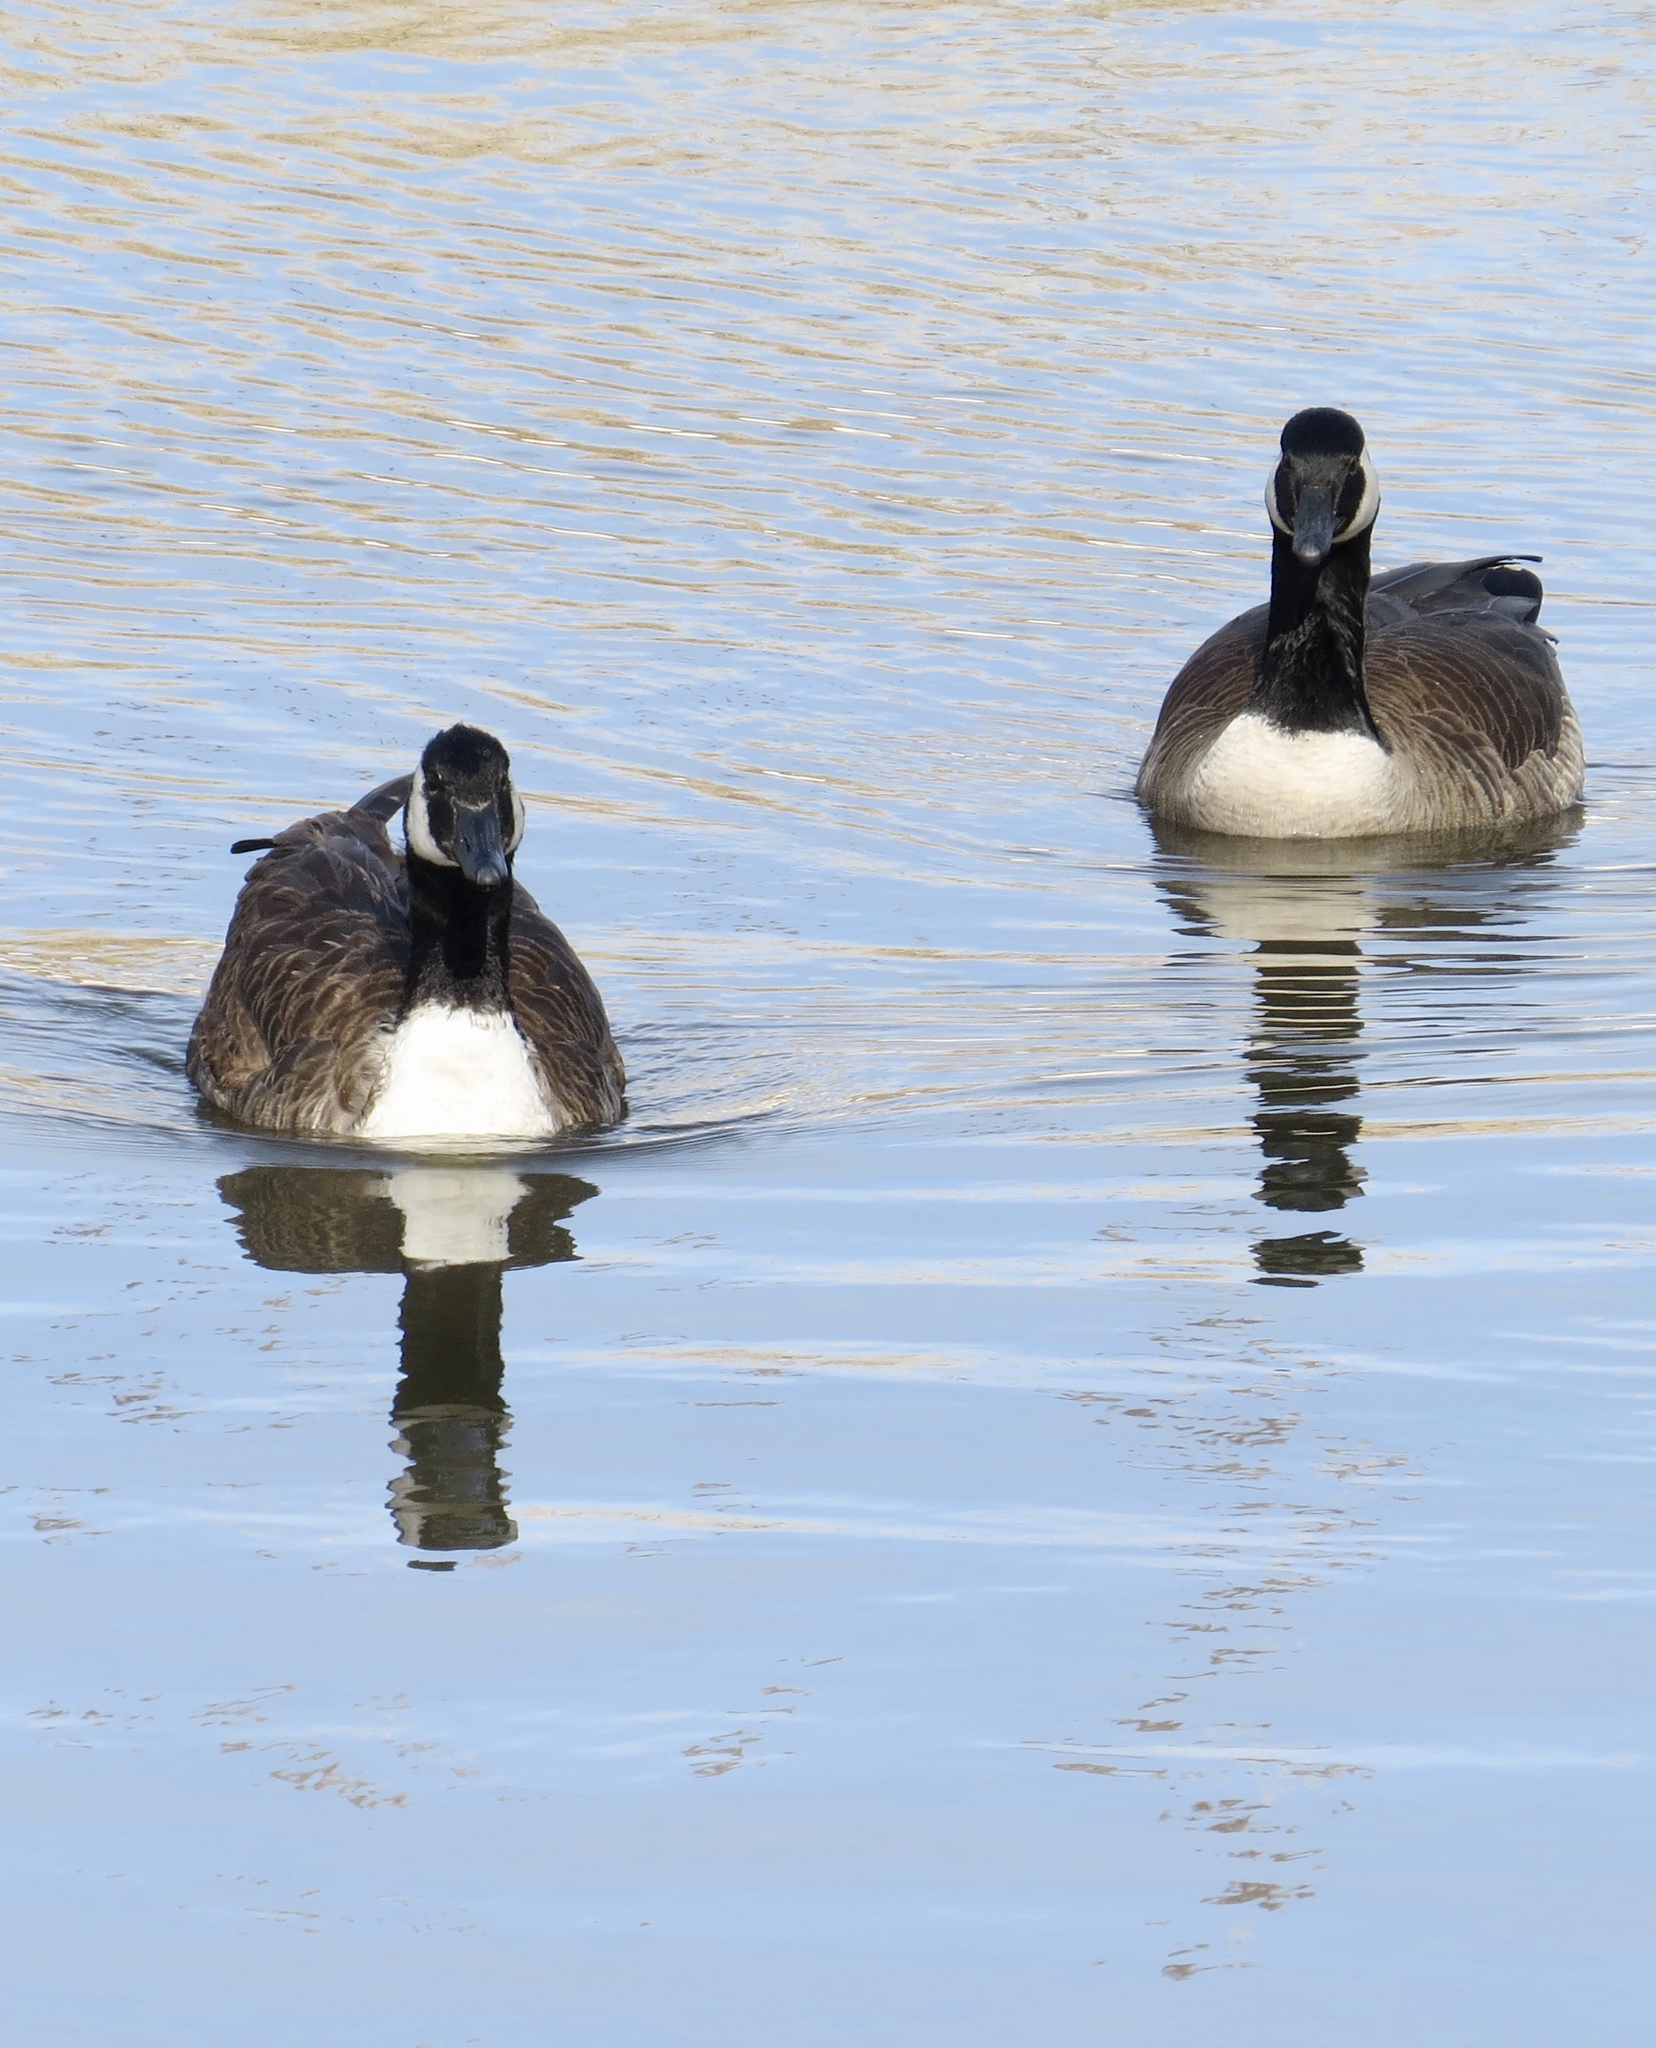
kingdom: Animalia
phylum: Chordata
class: Aves
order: Anseriformes
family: Anatidae
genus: Branta
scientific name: Branta canadensis
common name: Canada goose
